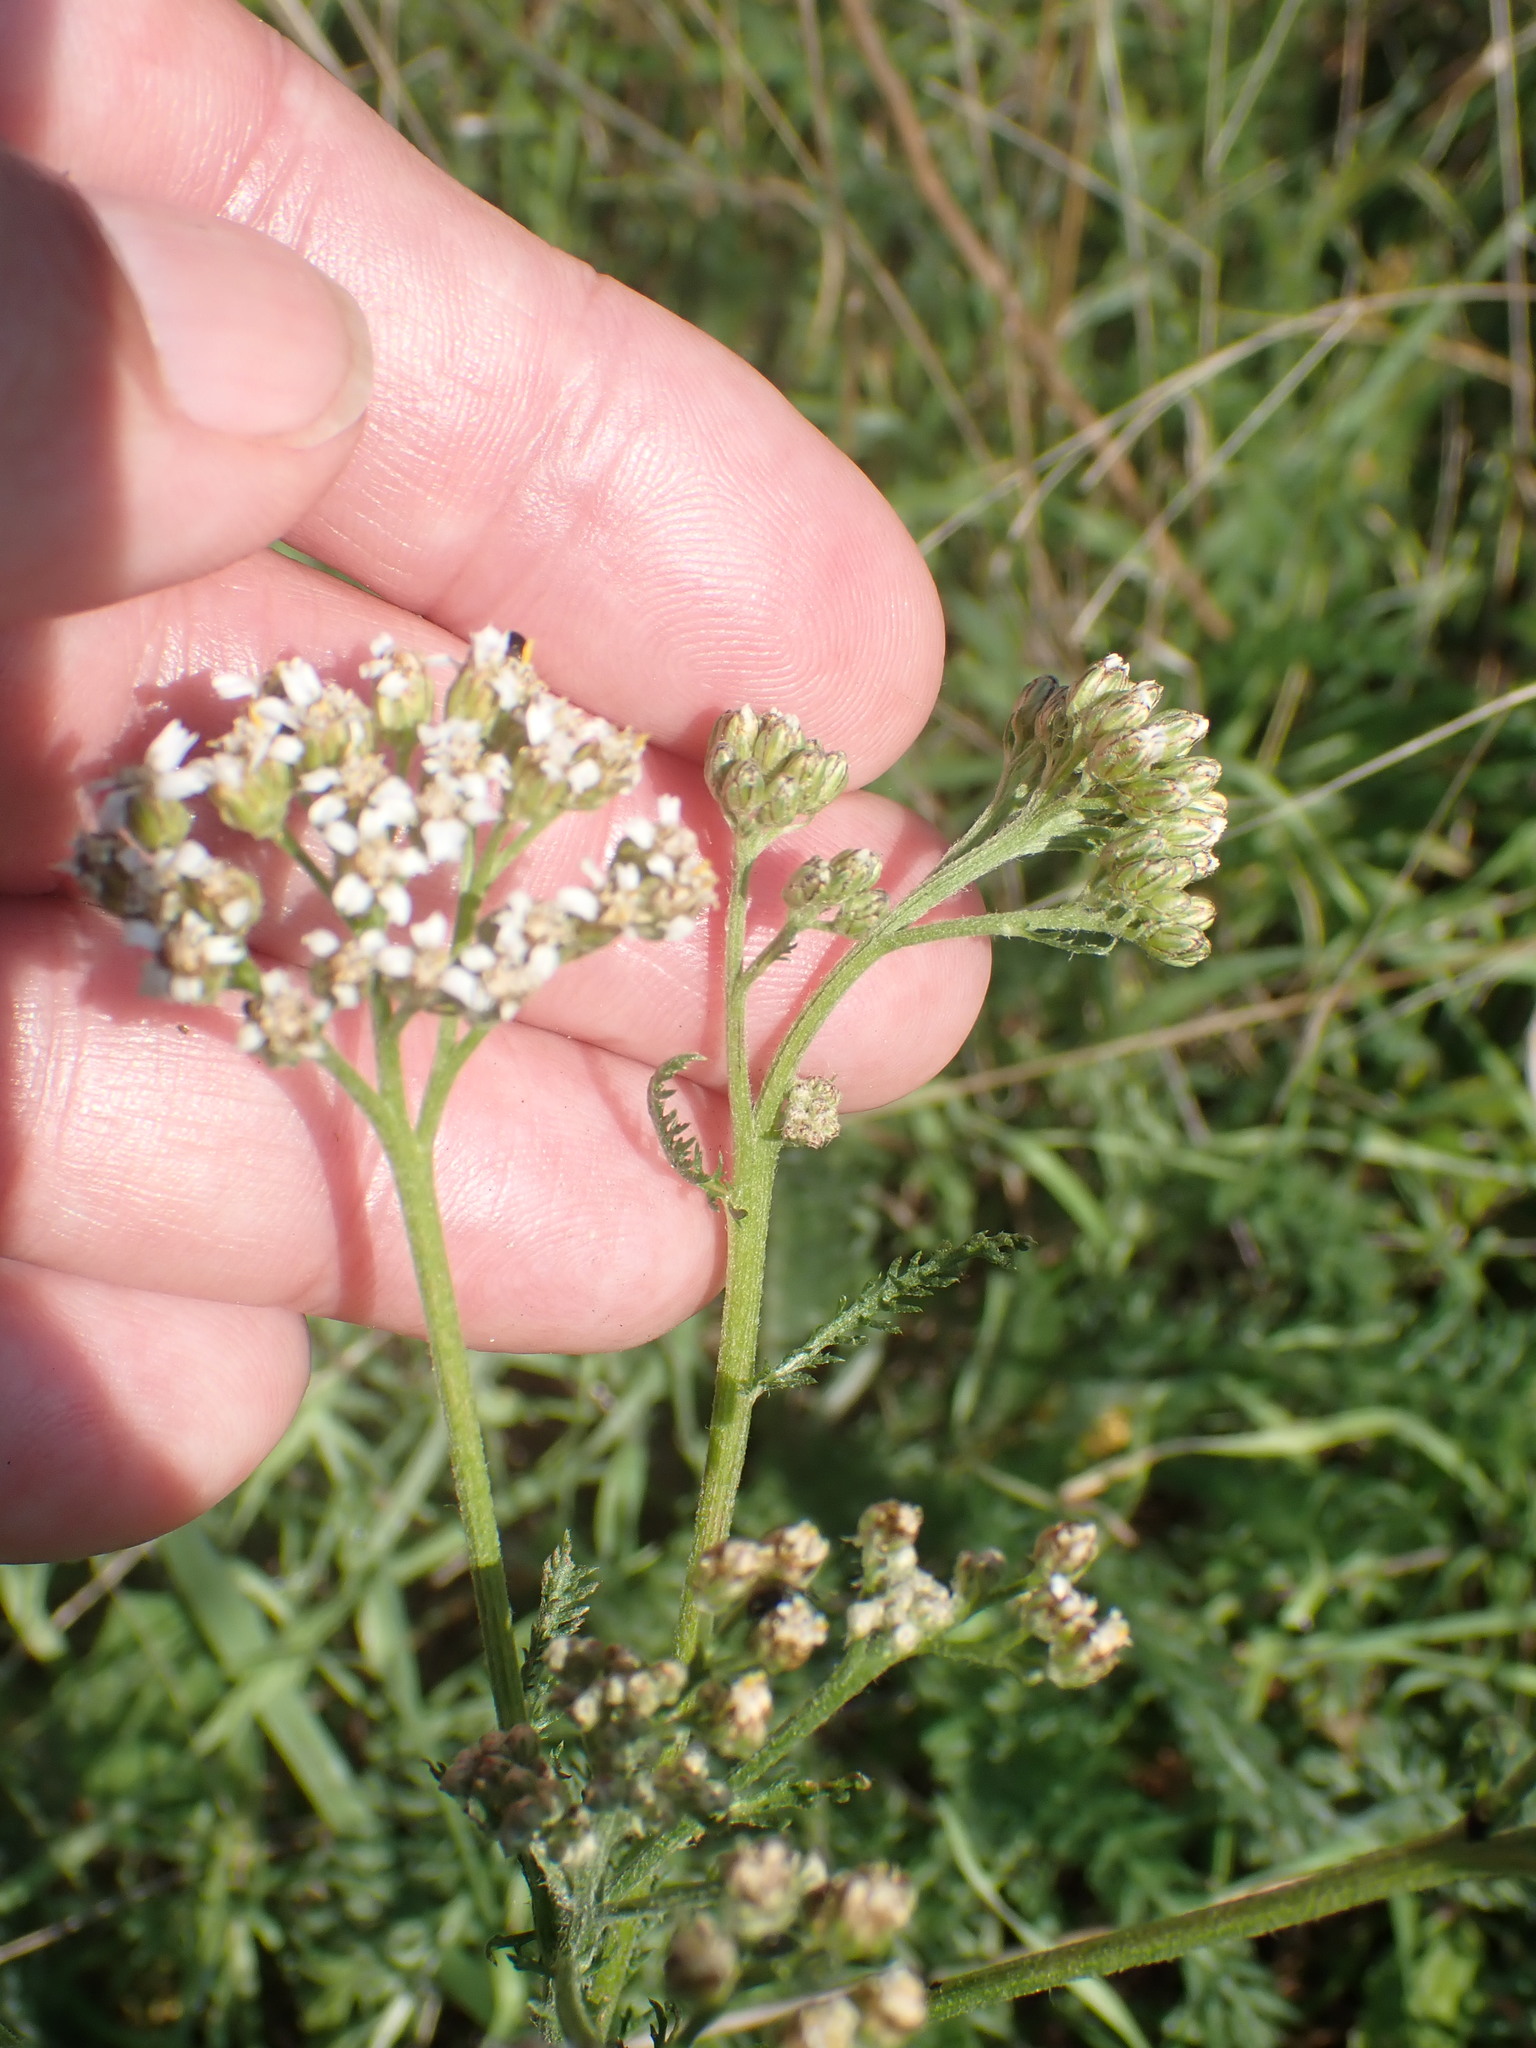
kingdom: Plantae
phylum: Tracheophyta
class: Magnoliopsida
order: Asterales
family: Asteraceae
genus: Achillea
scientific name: Achillea millefolium
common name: Yarrow
